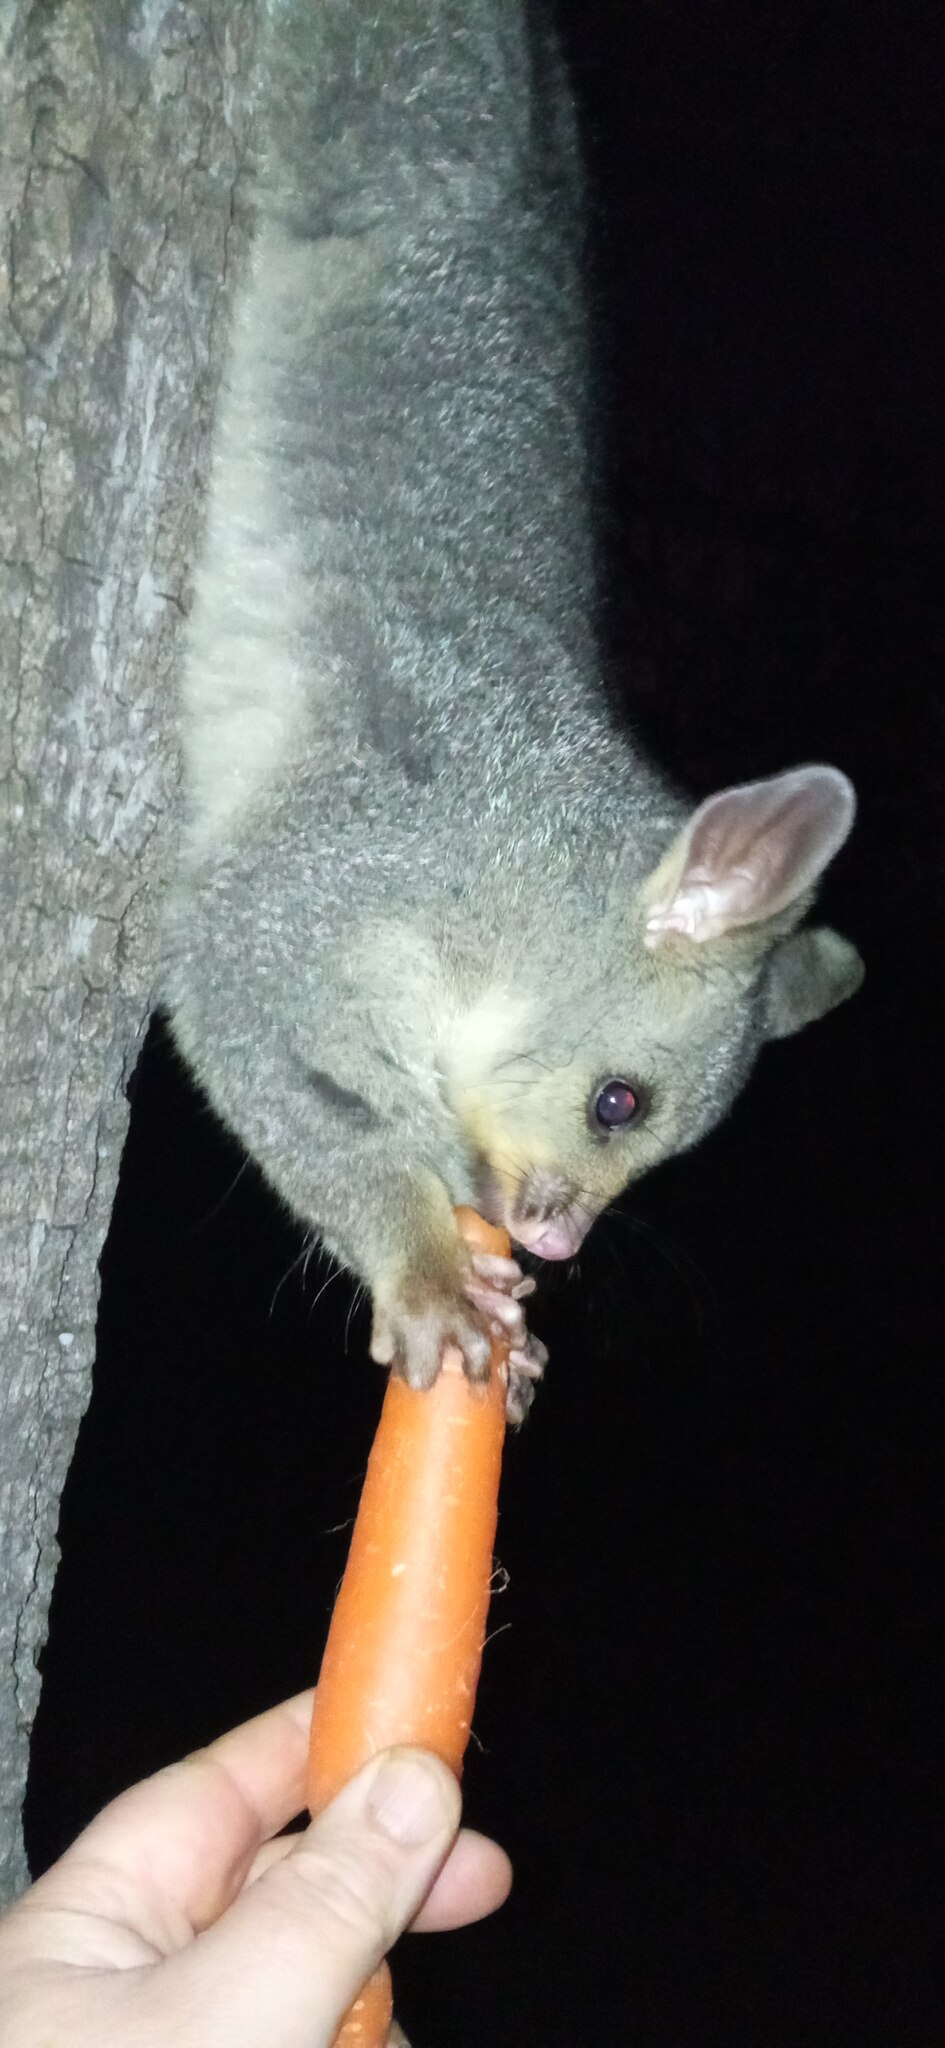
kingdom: Animalia
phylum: Chordata
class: Mammalia
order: Diprotodontia
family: Phalangeridae
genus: Trichosurus
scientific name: Trichosurus vulpecula
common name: Common brushtail
